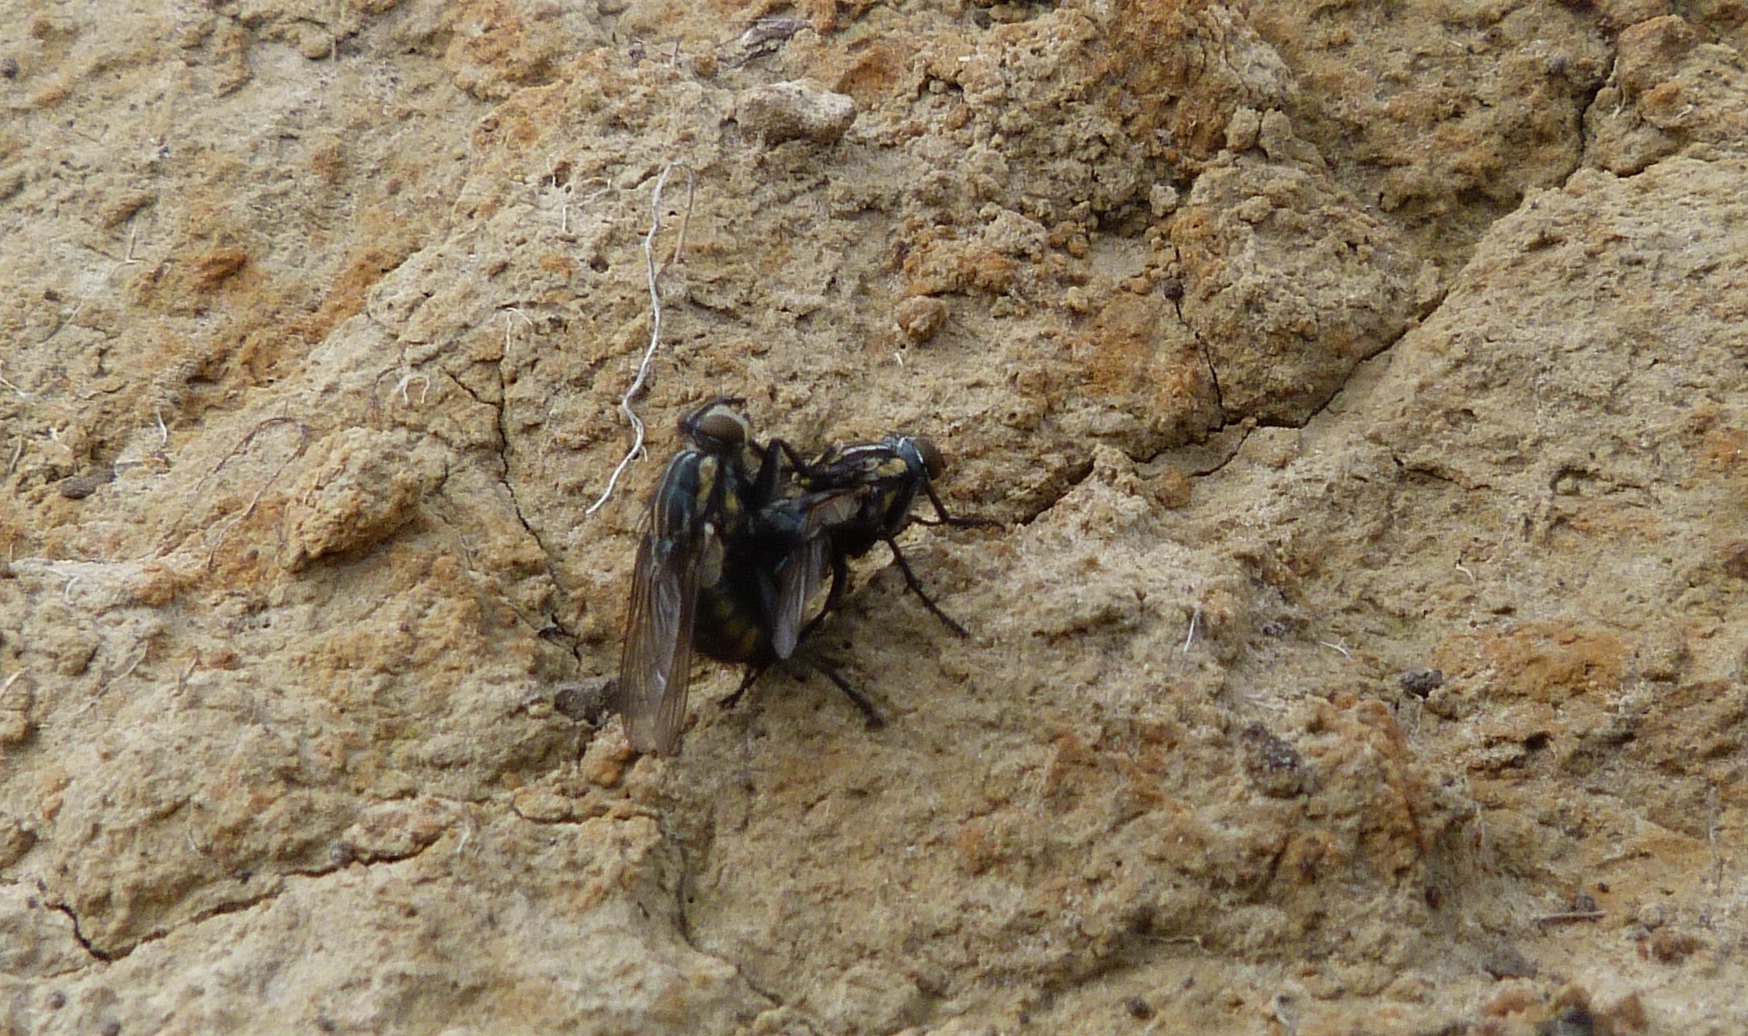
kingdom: Animalia
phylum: Arthropoda
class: Insecta
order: Diptera
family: Sarcophagidae
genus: Oxysarcodexia
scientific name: Oxysarcodexia varia
